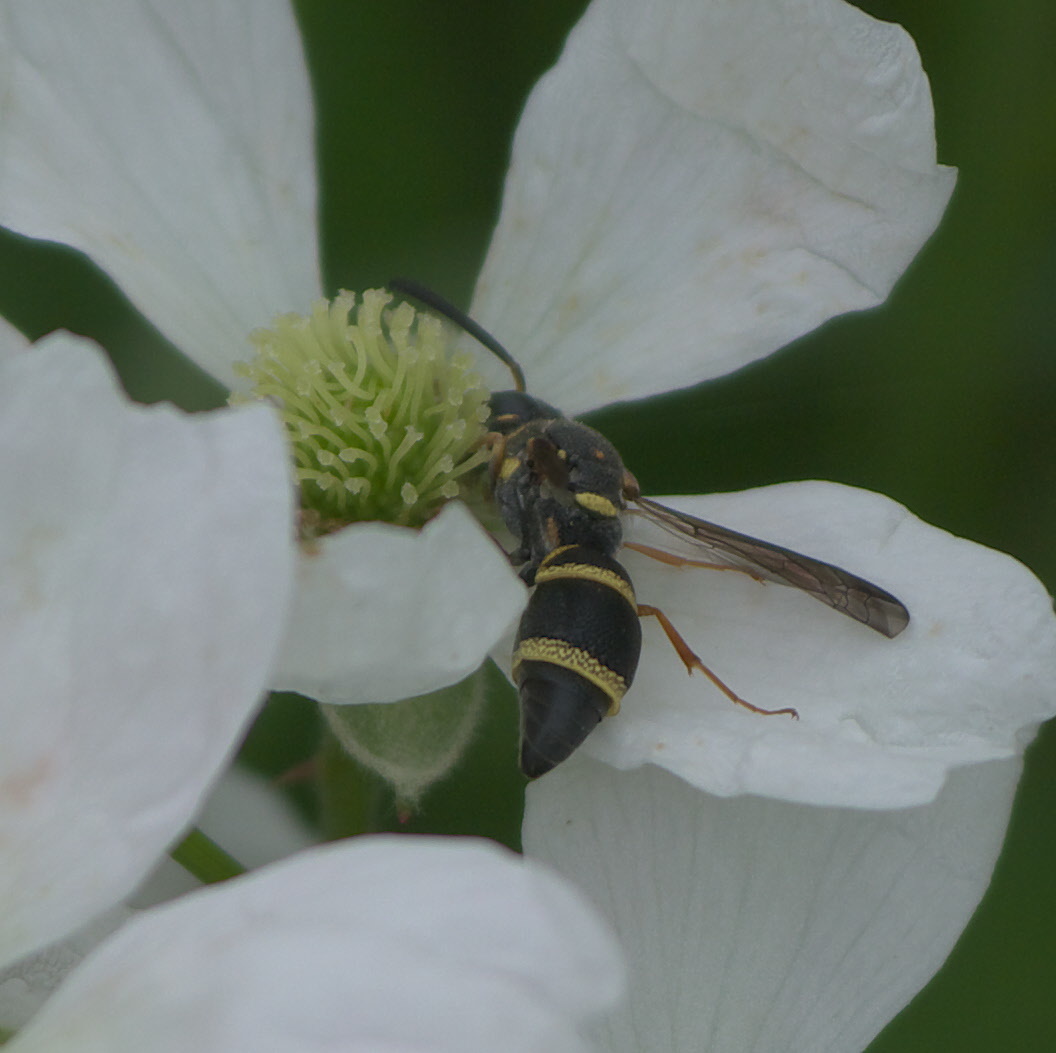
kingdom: Animalia
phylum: Arthropoda
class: Insecta
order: Hymenoptera
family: Eumenidae
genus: Parancistrocerus
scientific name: Parancistrocerus fulvipes
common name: Potter wasp
